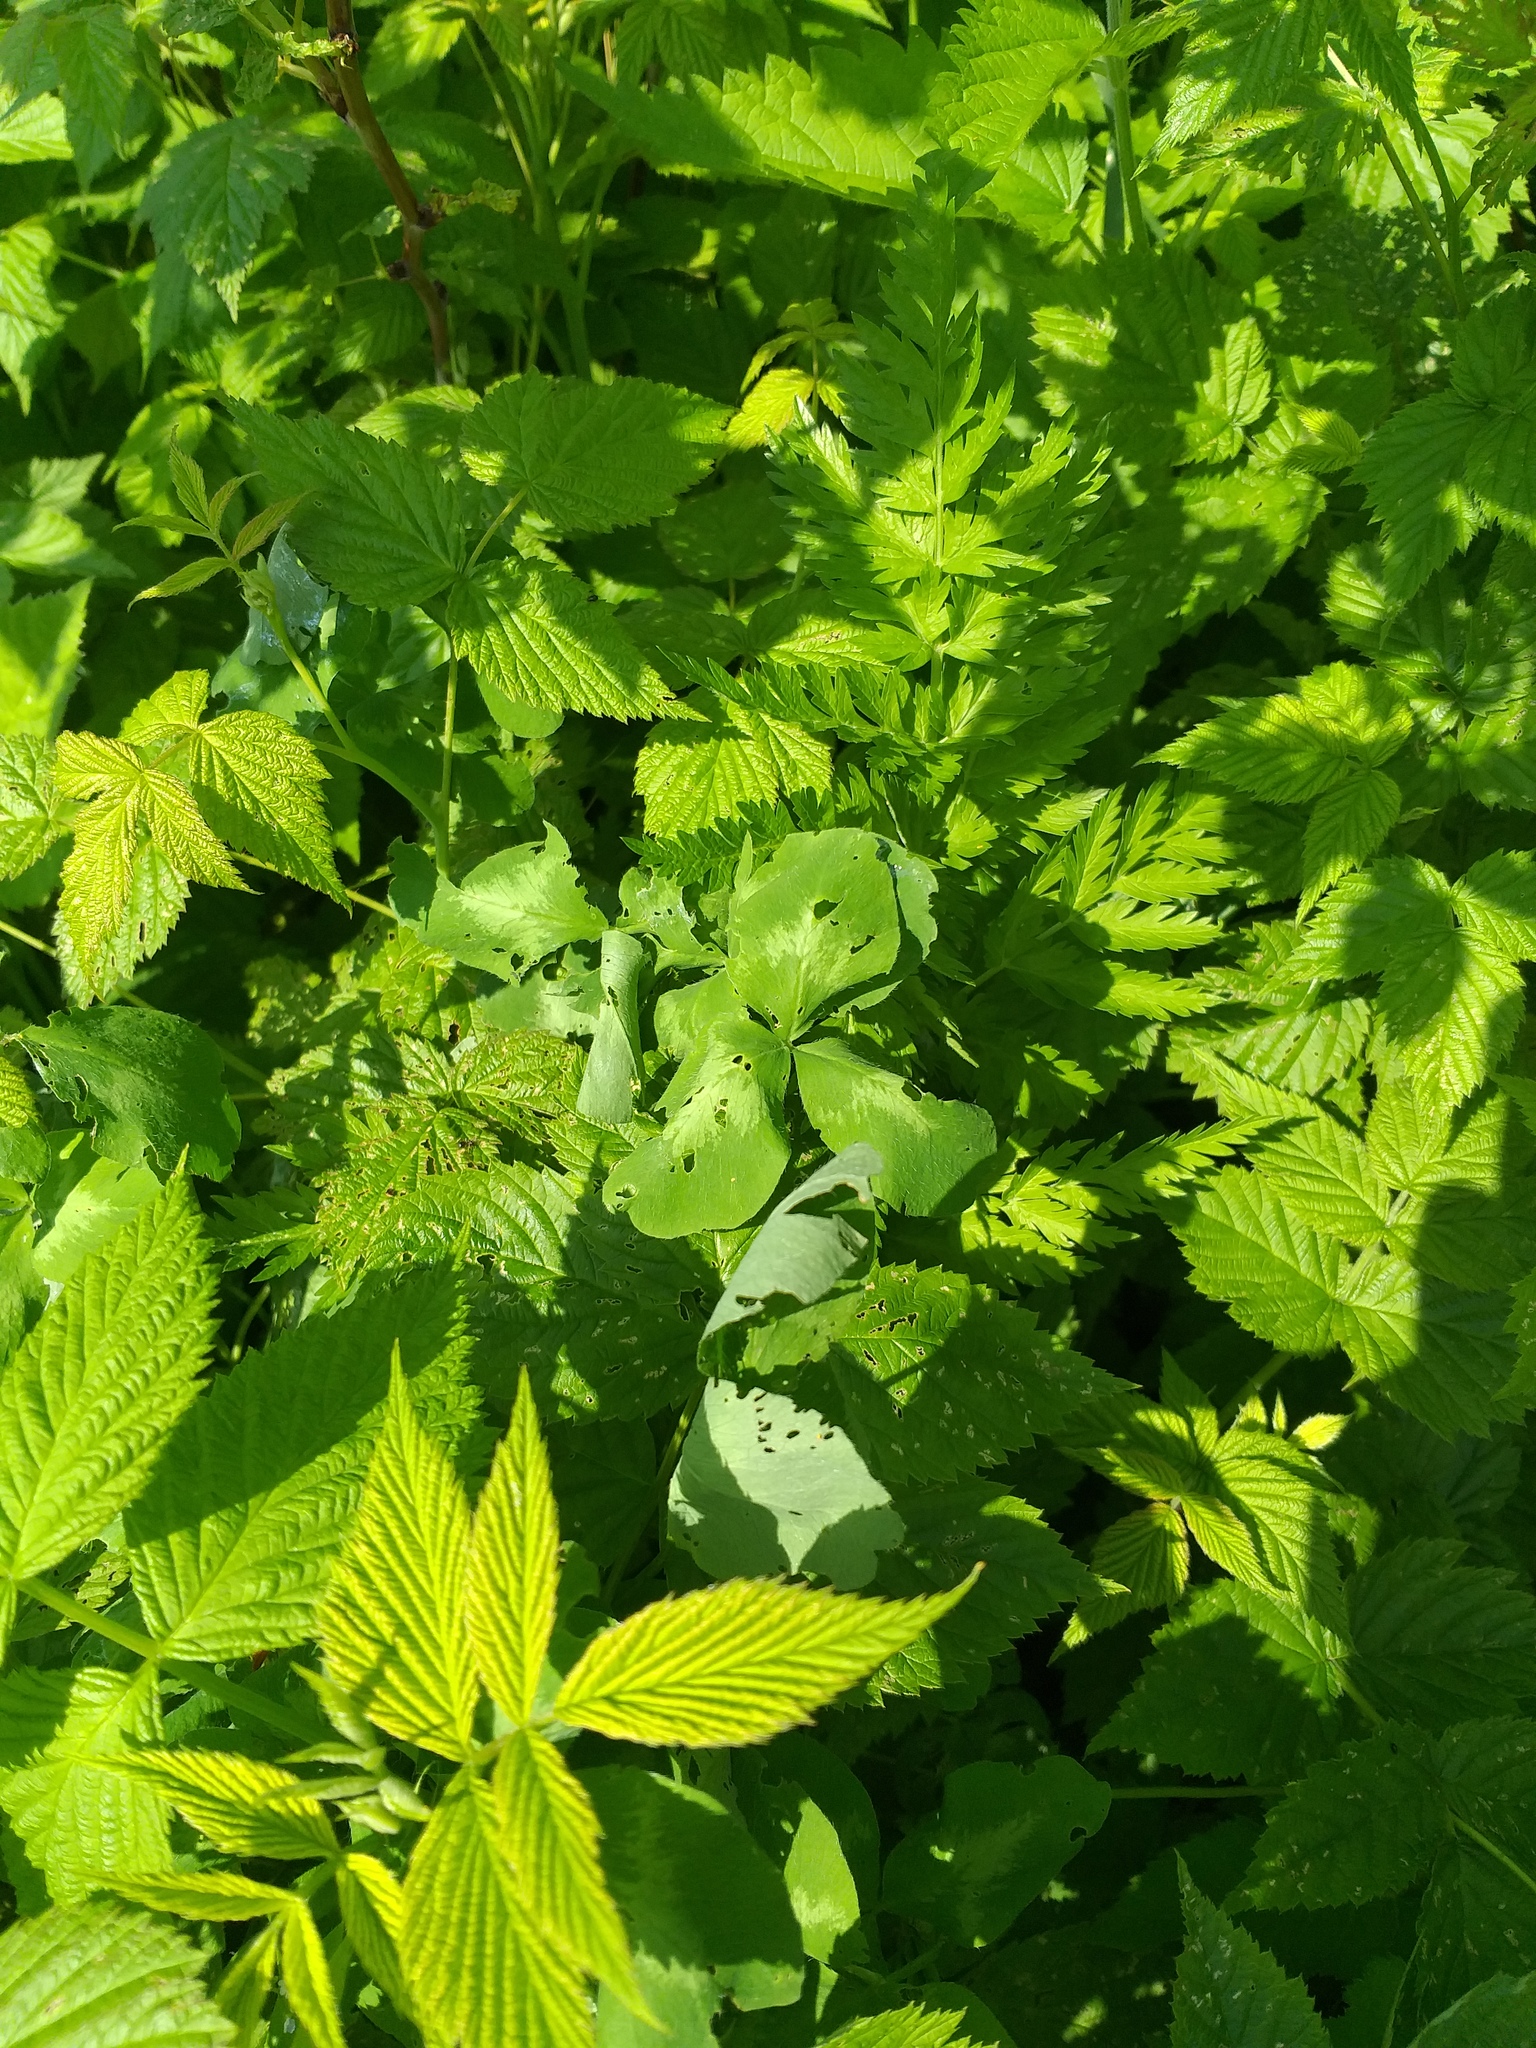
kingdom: Plantae
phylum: Tracheophyta
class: Magnoliopsida
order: Fabales
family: Fabaceae
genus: Trifolium
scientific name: Trifolium pratense
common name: Red clover
